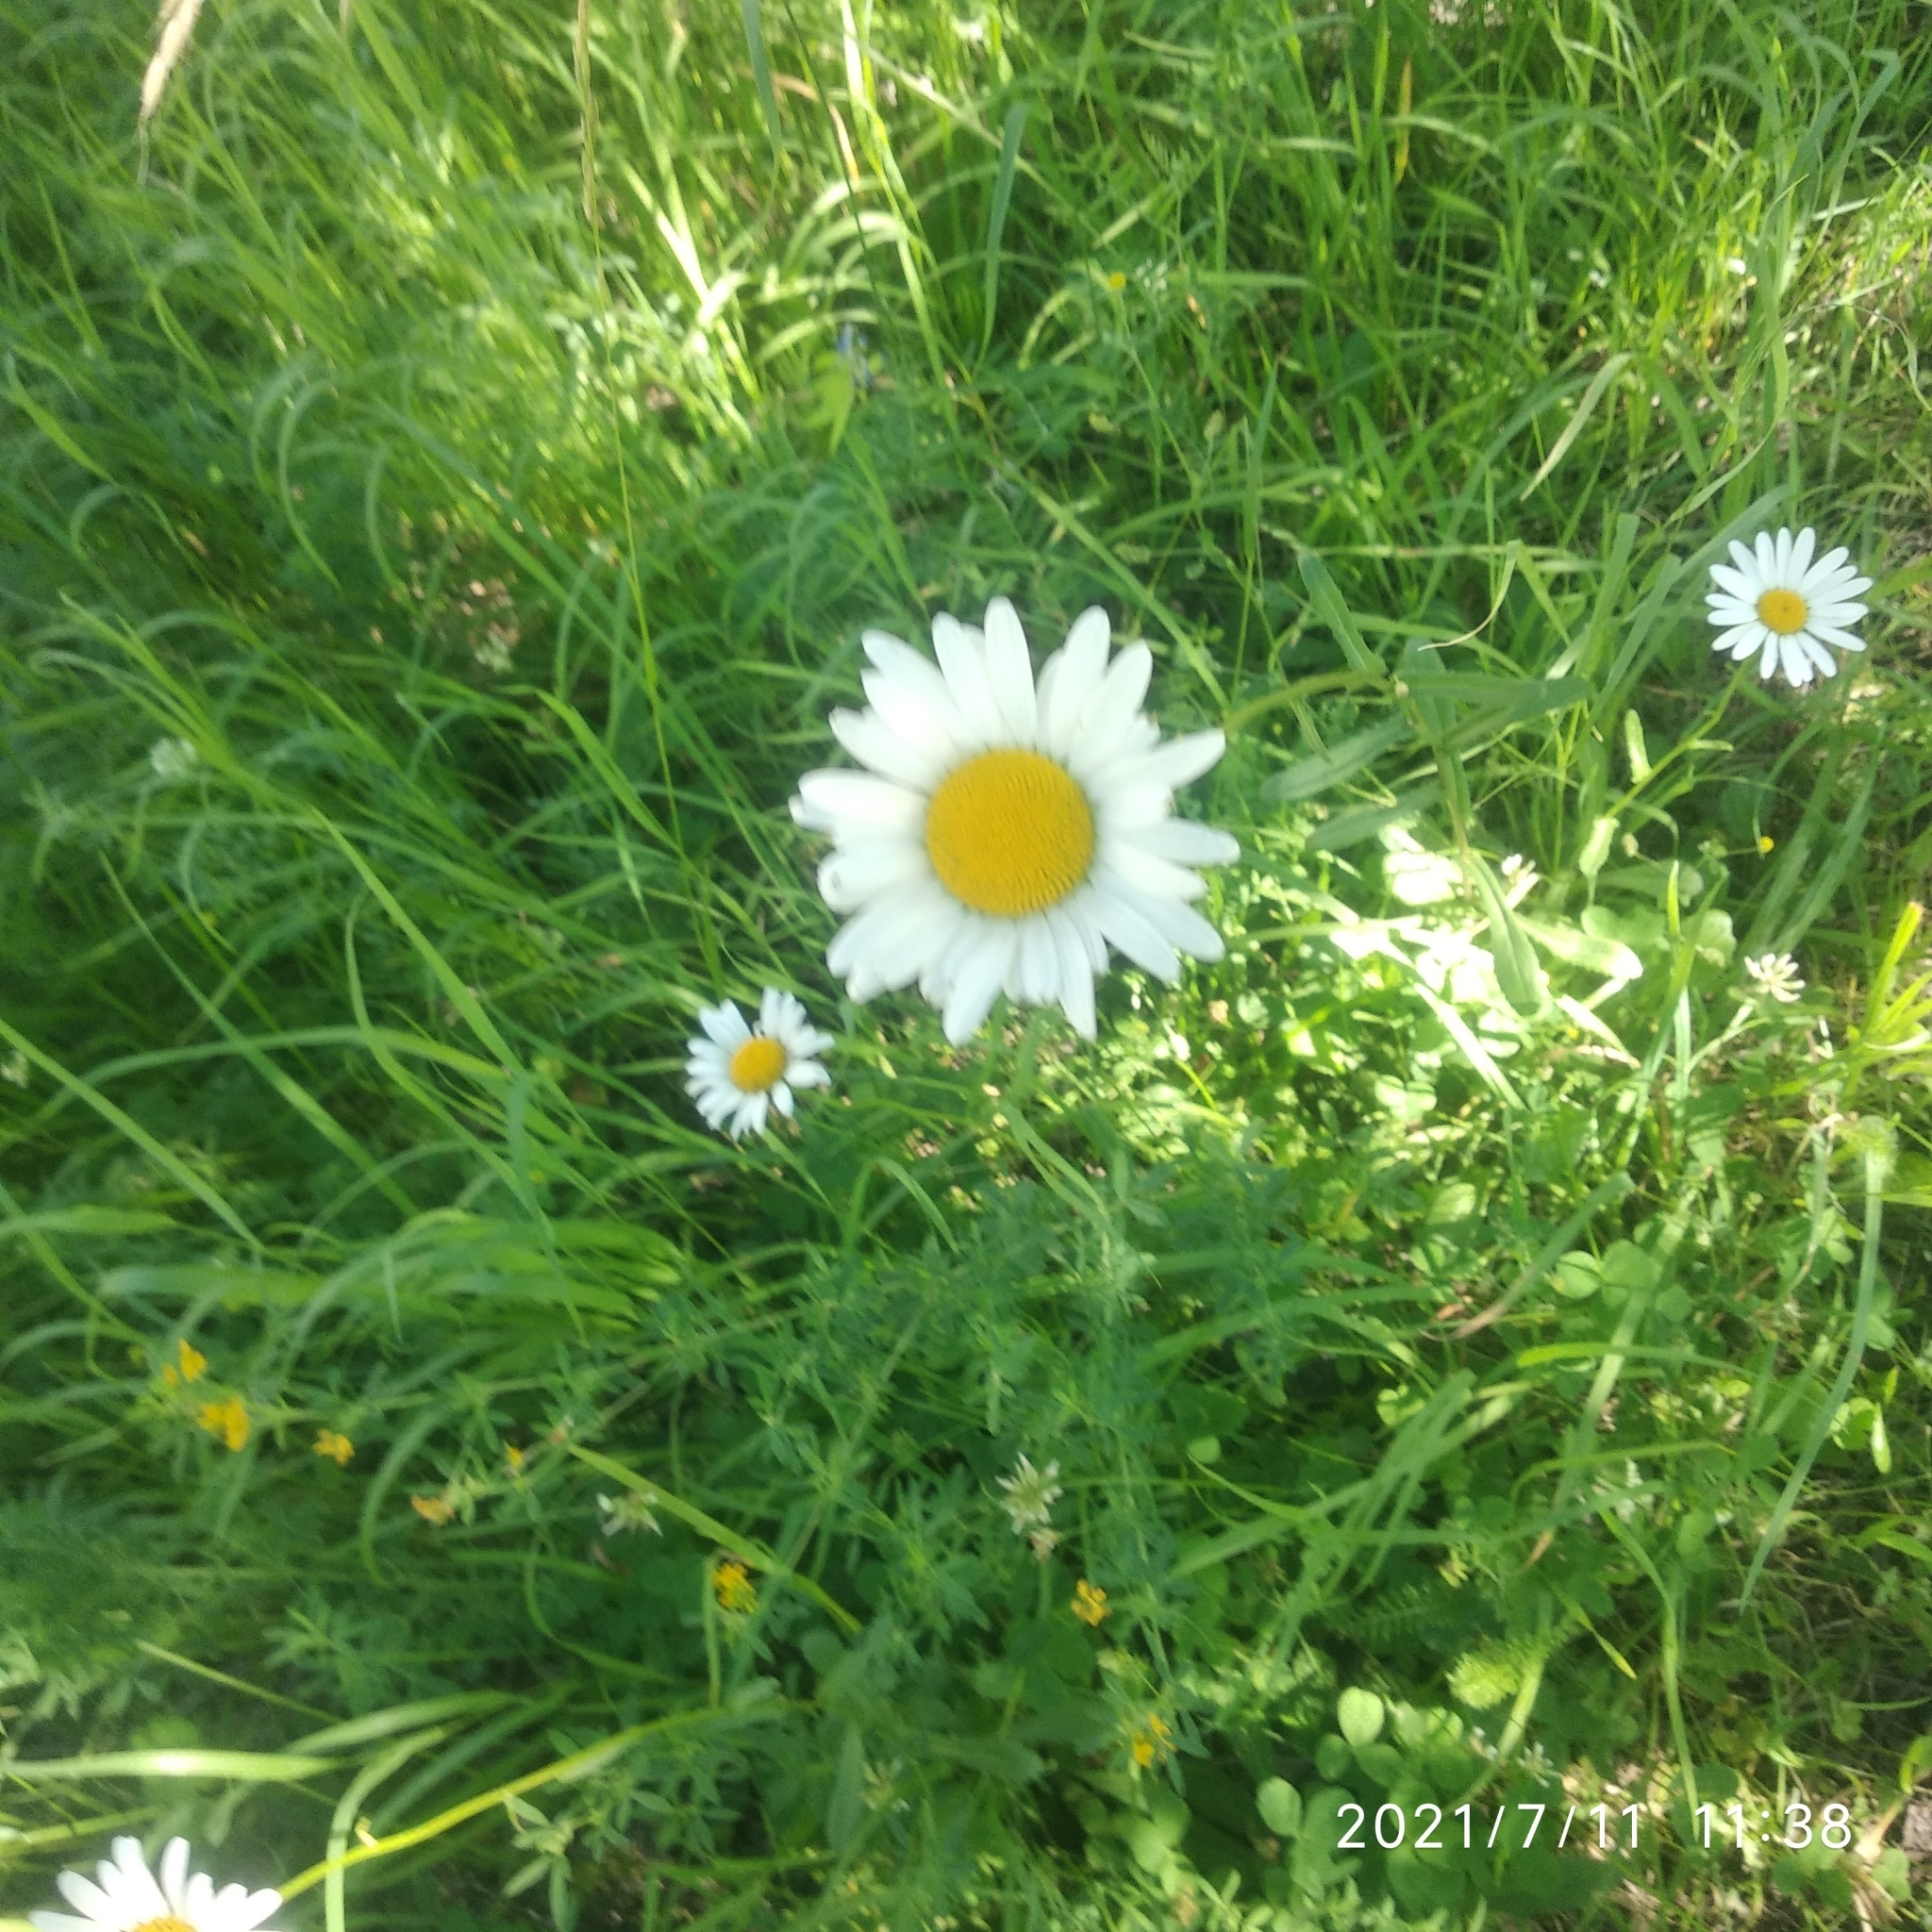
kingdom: Plantae
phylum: Tracheophyta
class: Magnoliopsida
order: Asterales
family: Asteraceae
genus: Leucanthemum
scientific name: Leucanthemum vulgare
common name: Oxeye daisy
